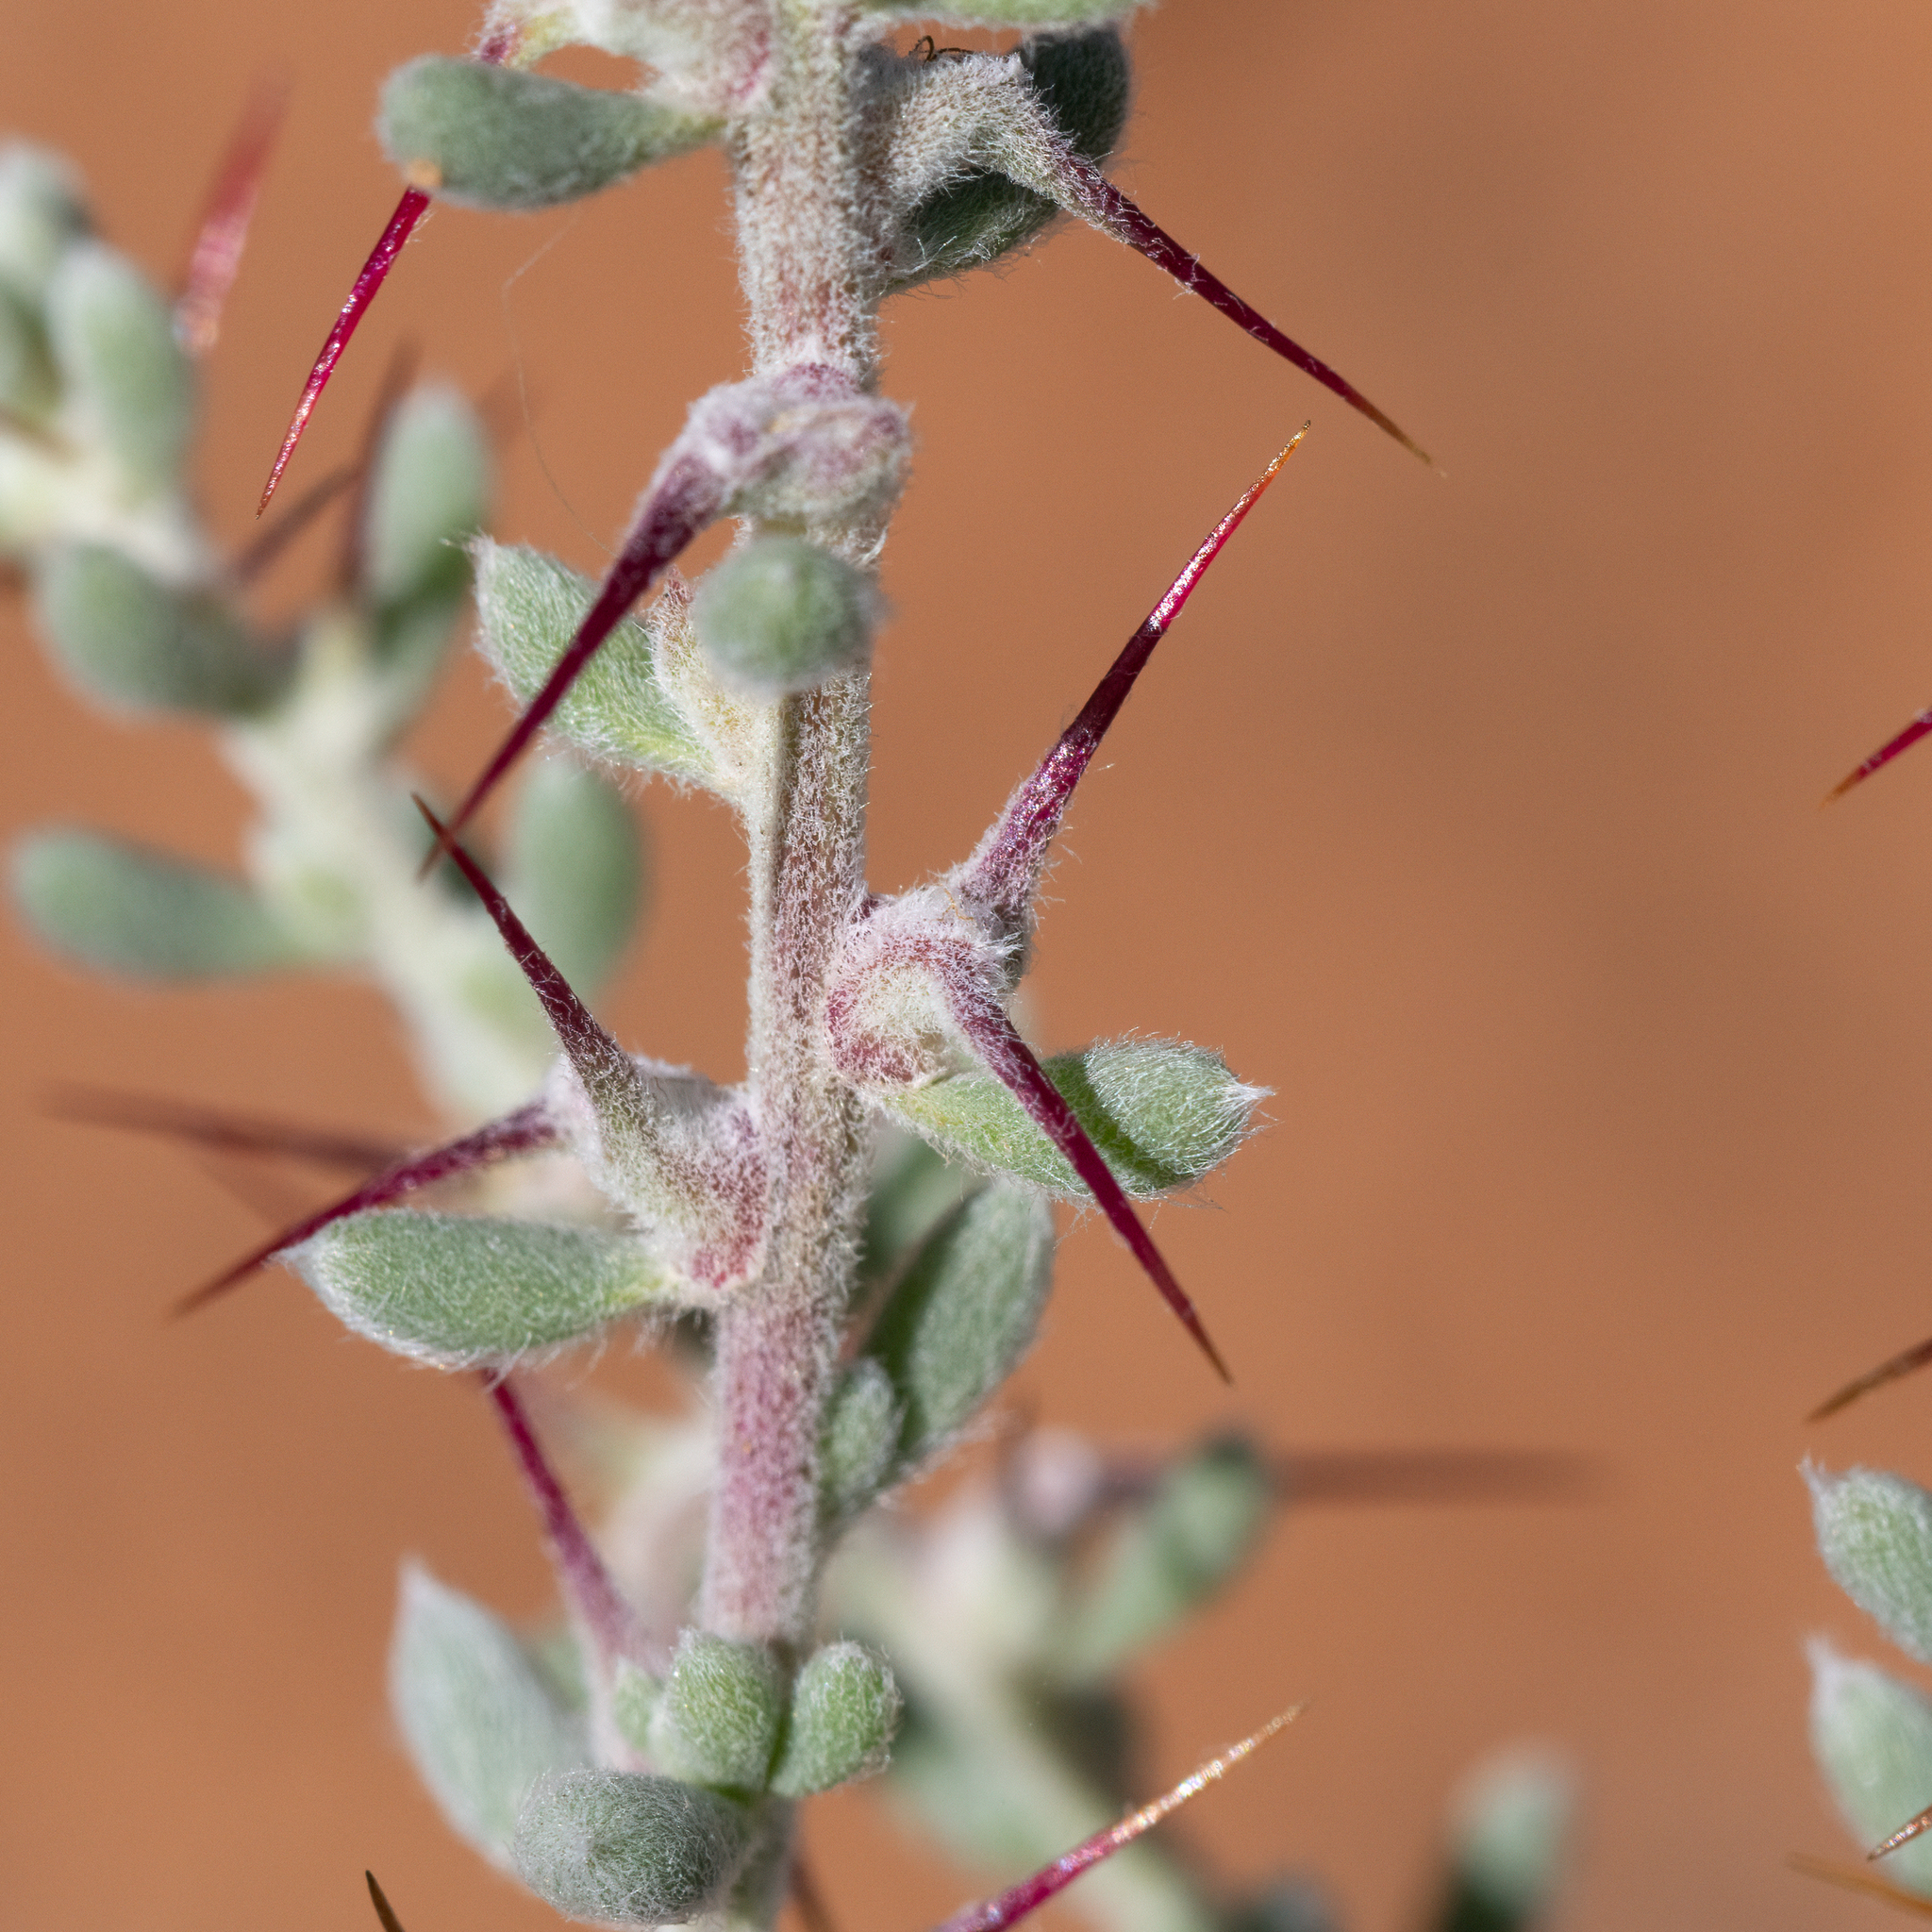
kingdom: Plantae
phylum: Tracheophyta
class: Magnoliopsida
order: Caryophyllales
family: Amaranthaceae
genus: Sclerolaena
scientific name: Sclerolaena obliquicuspis
